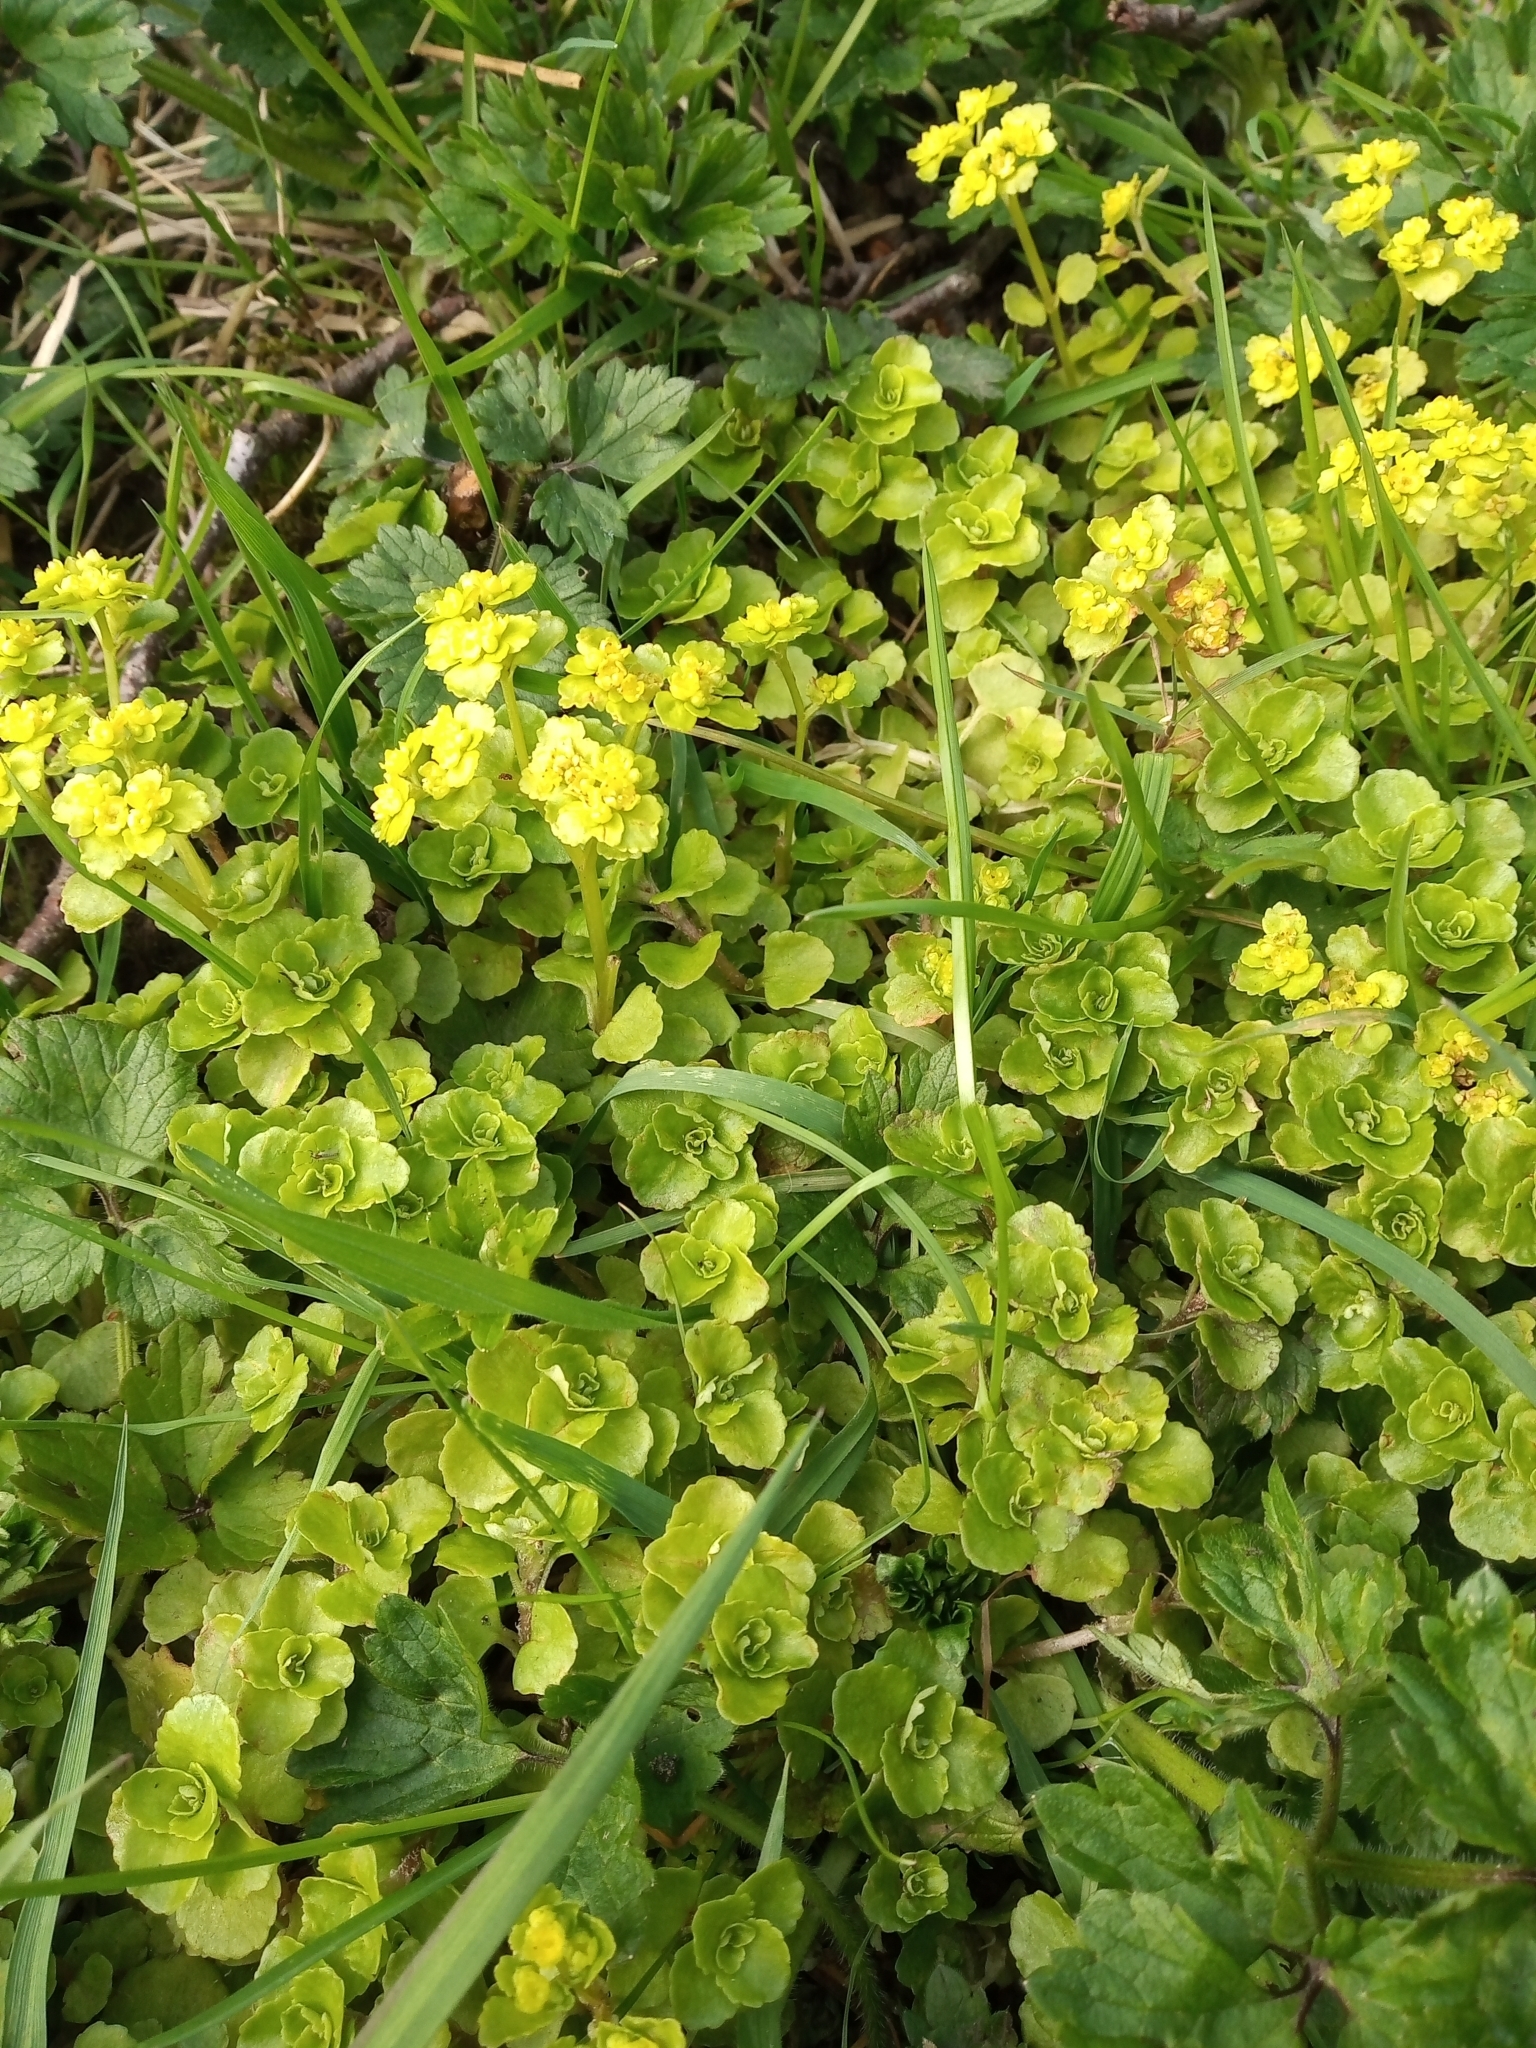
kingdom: Plantae
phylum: Tracheophyta
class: Magnoliopsida
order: Saxifragales
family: Saxifragaceae
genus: Chrysosplenium
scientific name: Chrysosplenium oppositifolium
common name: Opposite-leaved golden-saxifrage
